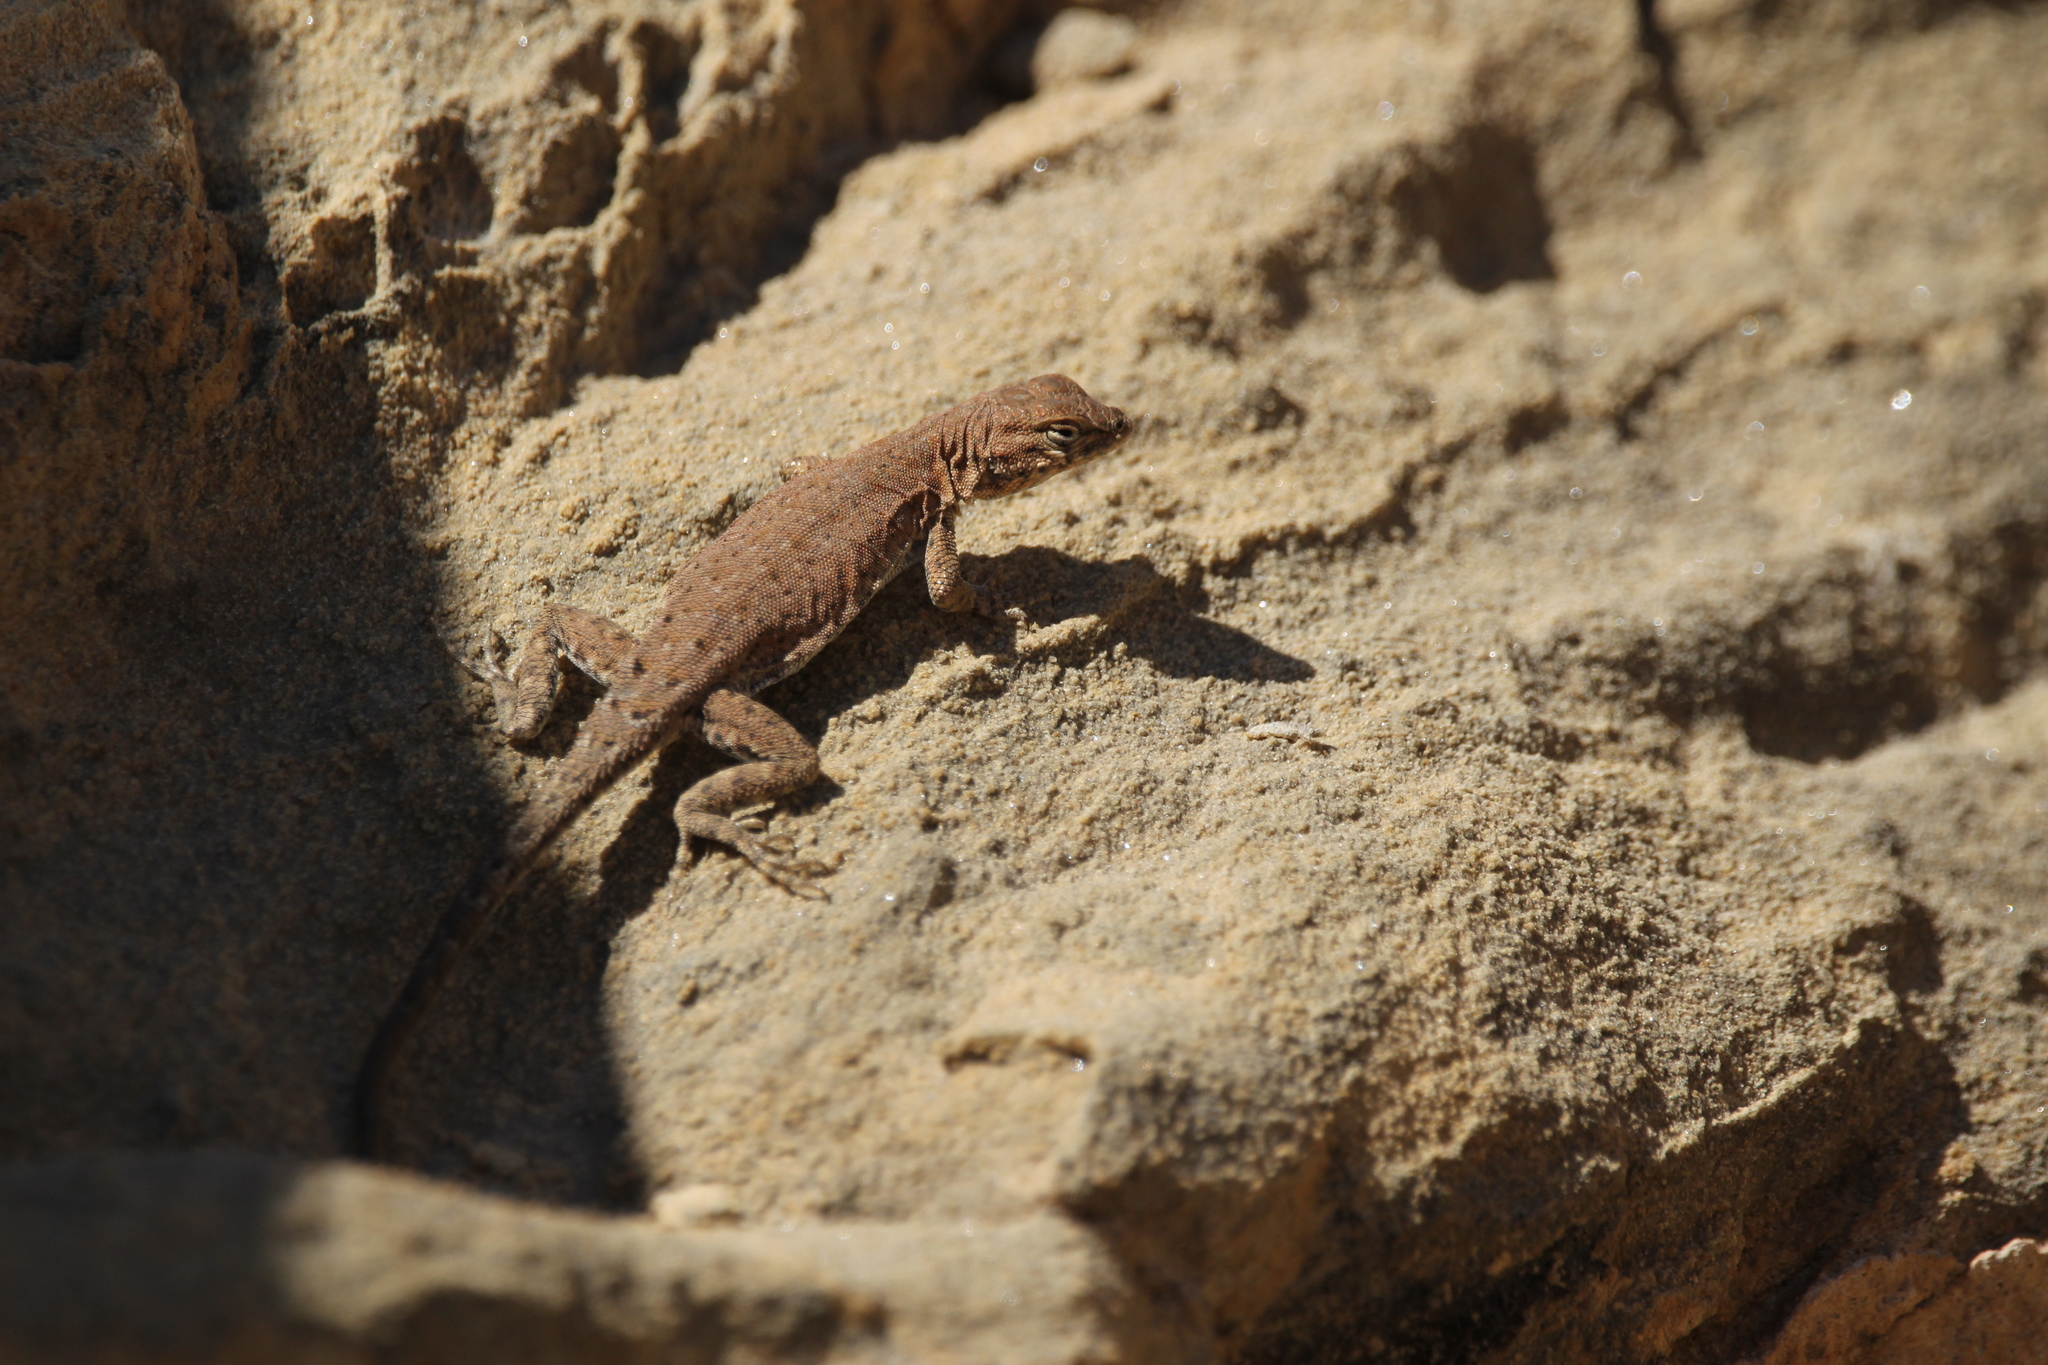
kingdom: Animalia
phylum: Chordata
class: Squamata
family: Phrynosomatidae
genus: Uta
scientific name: Uta stansburiana
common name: Side-blotched lizard
